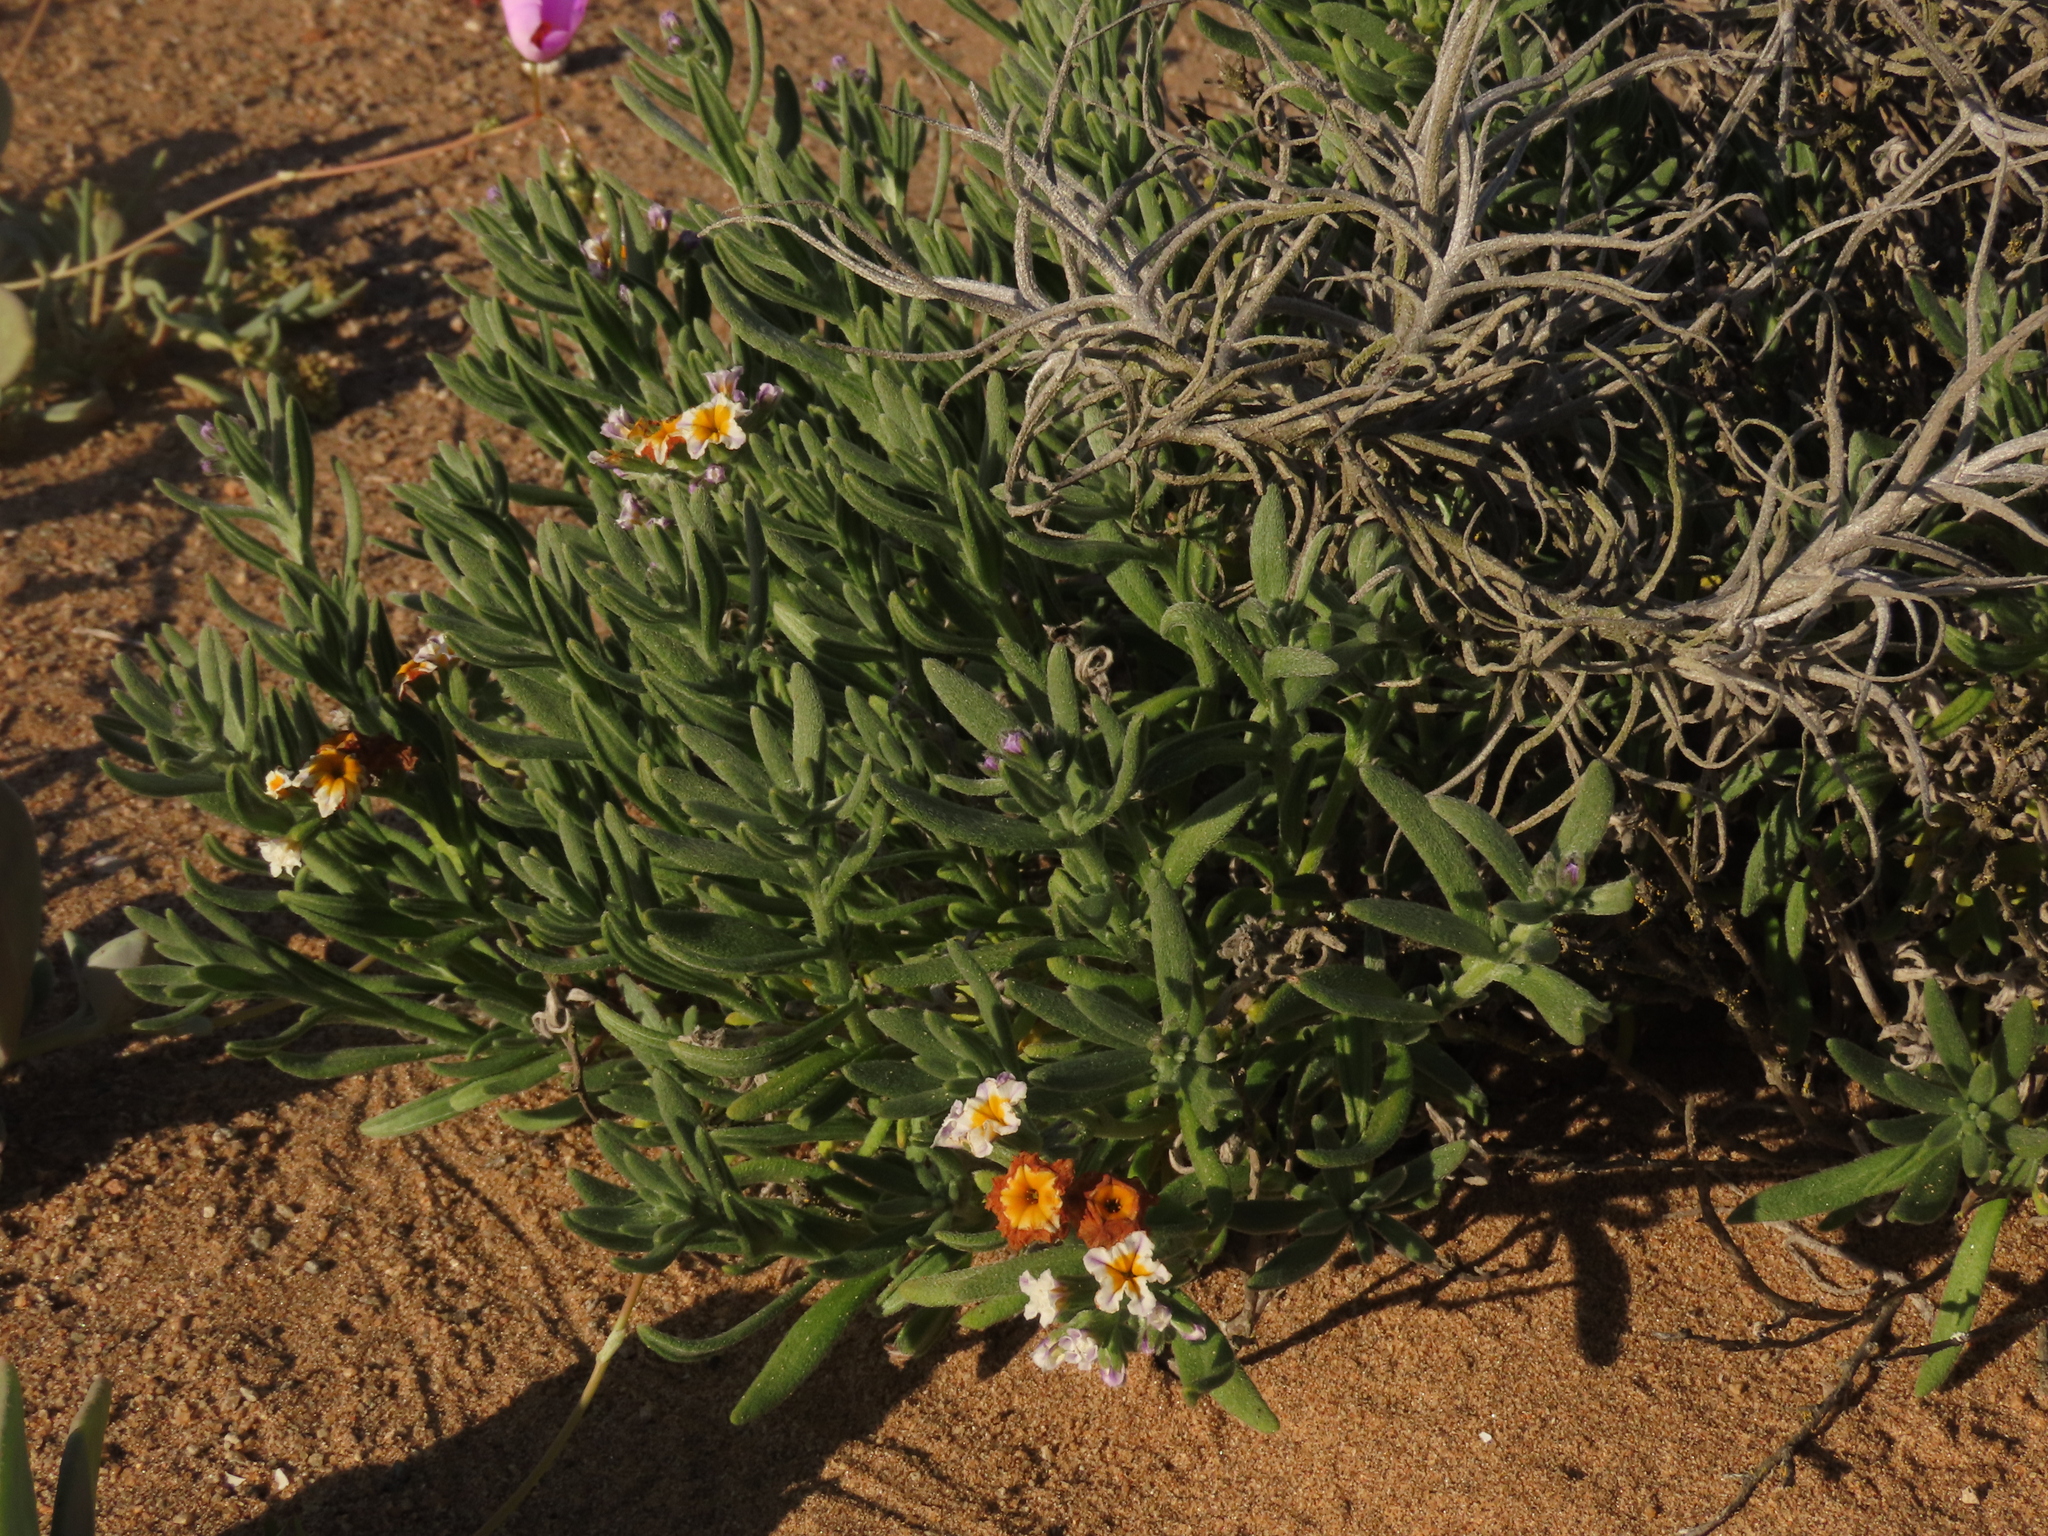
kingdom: Plantae
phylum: Tracheophyta
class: Magnoliopsida
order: Boraginales
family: Heliotropiaceae
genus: Heliotropium
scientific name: Heliotropium floridum
